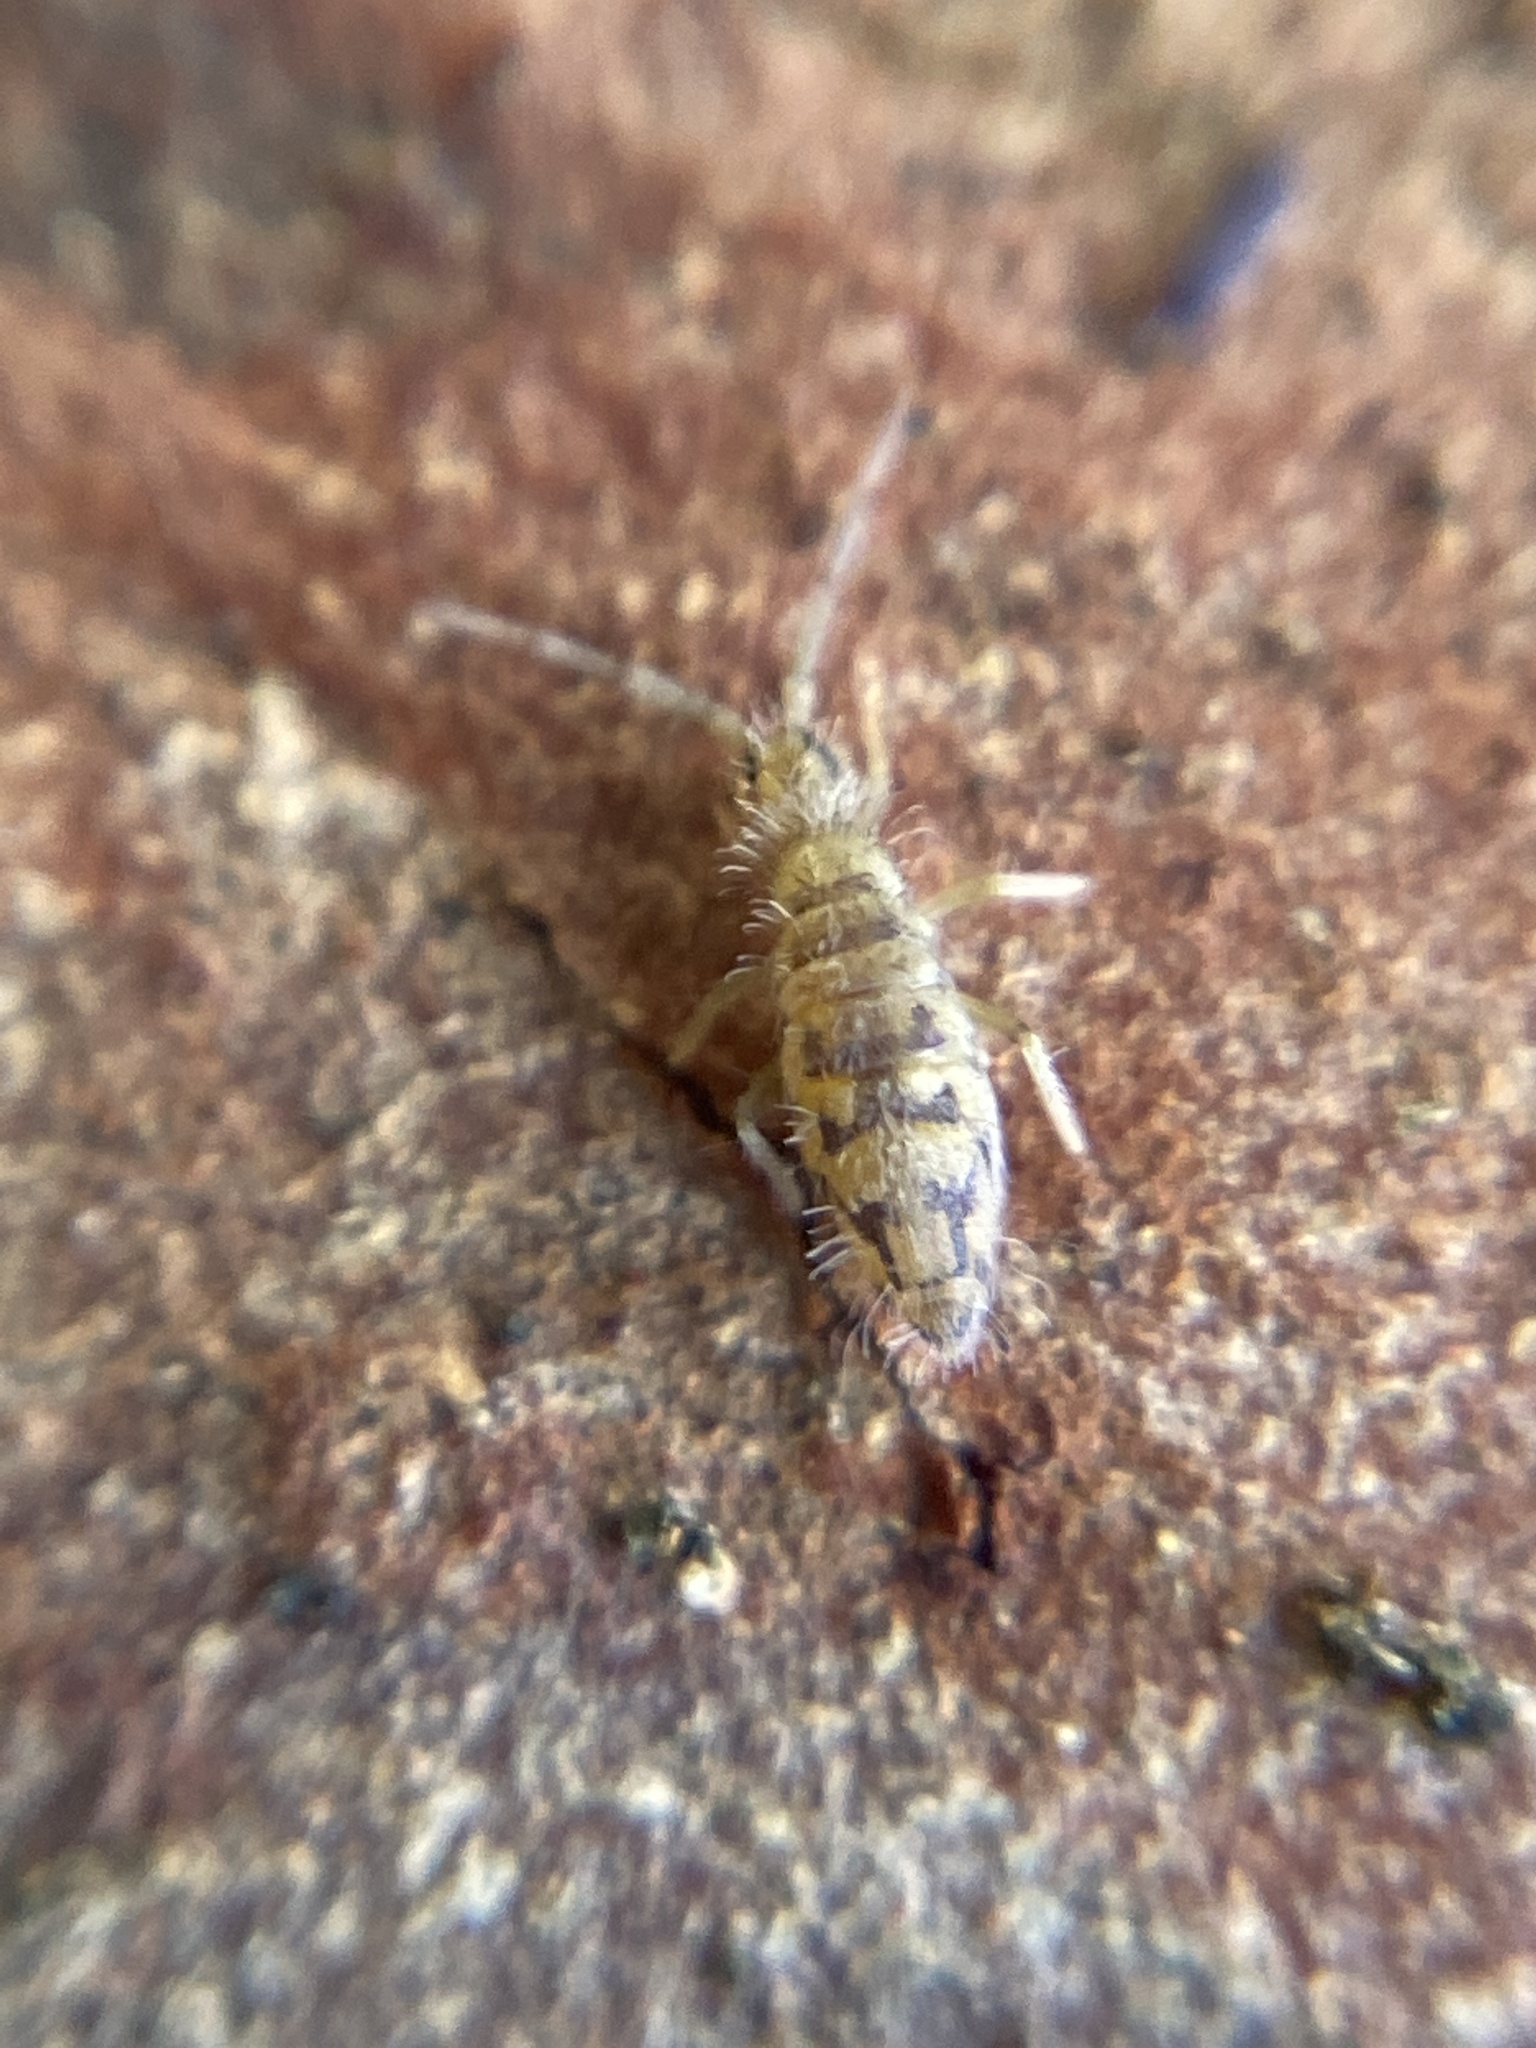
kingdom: Animalia
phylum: Arthropoda
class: Collembola
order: Entomobryomorpha
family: Entomobryidae
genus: Entomobrya
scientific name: Entomobrya nivalis
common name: Cosmopolitan springtail
